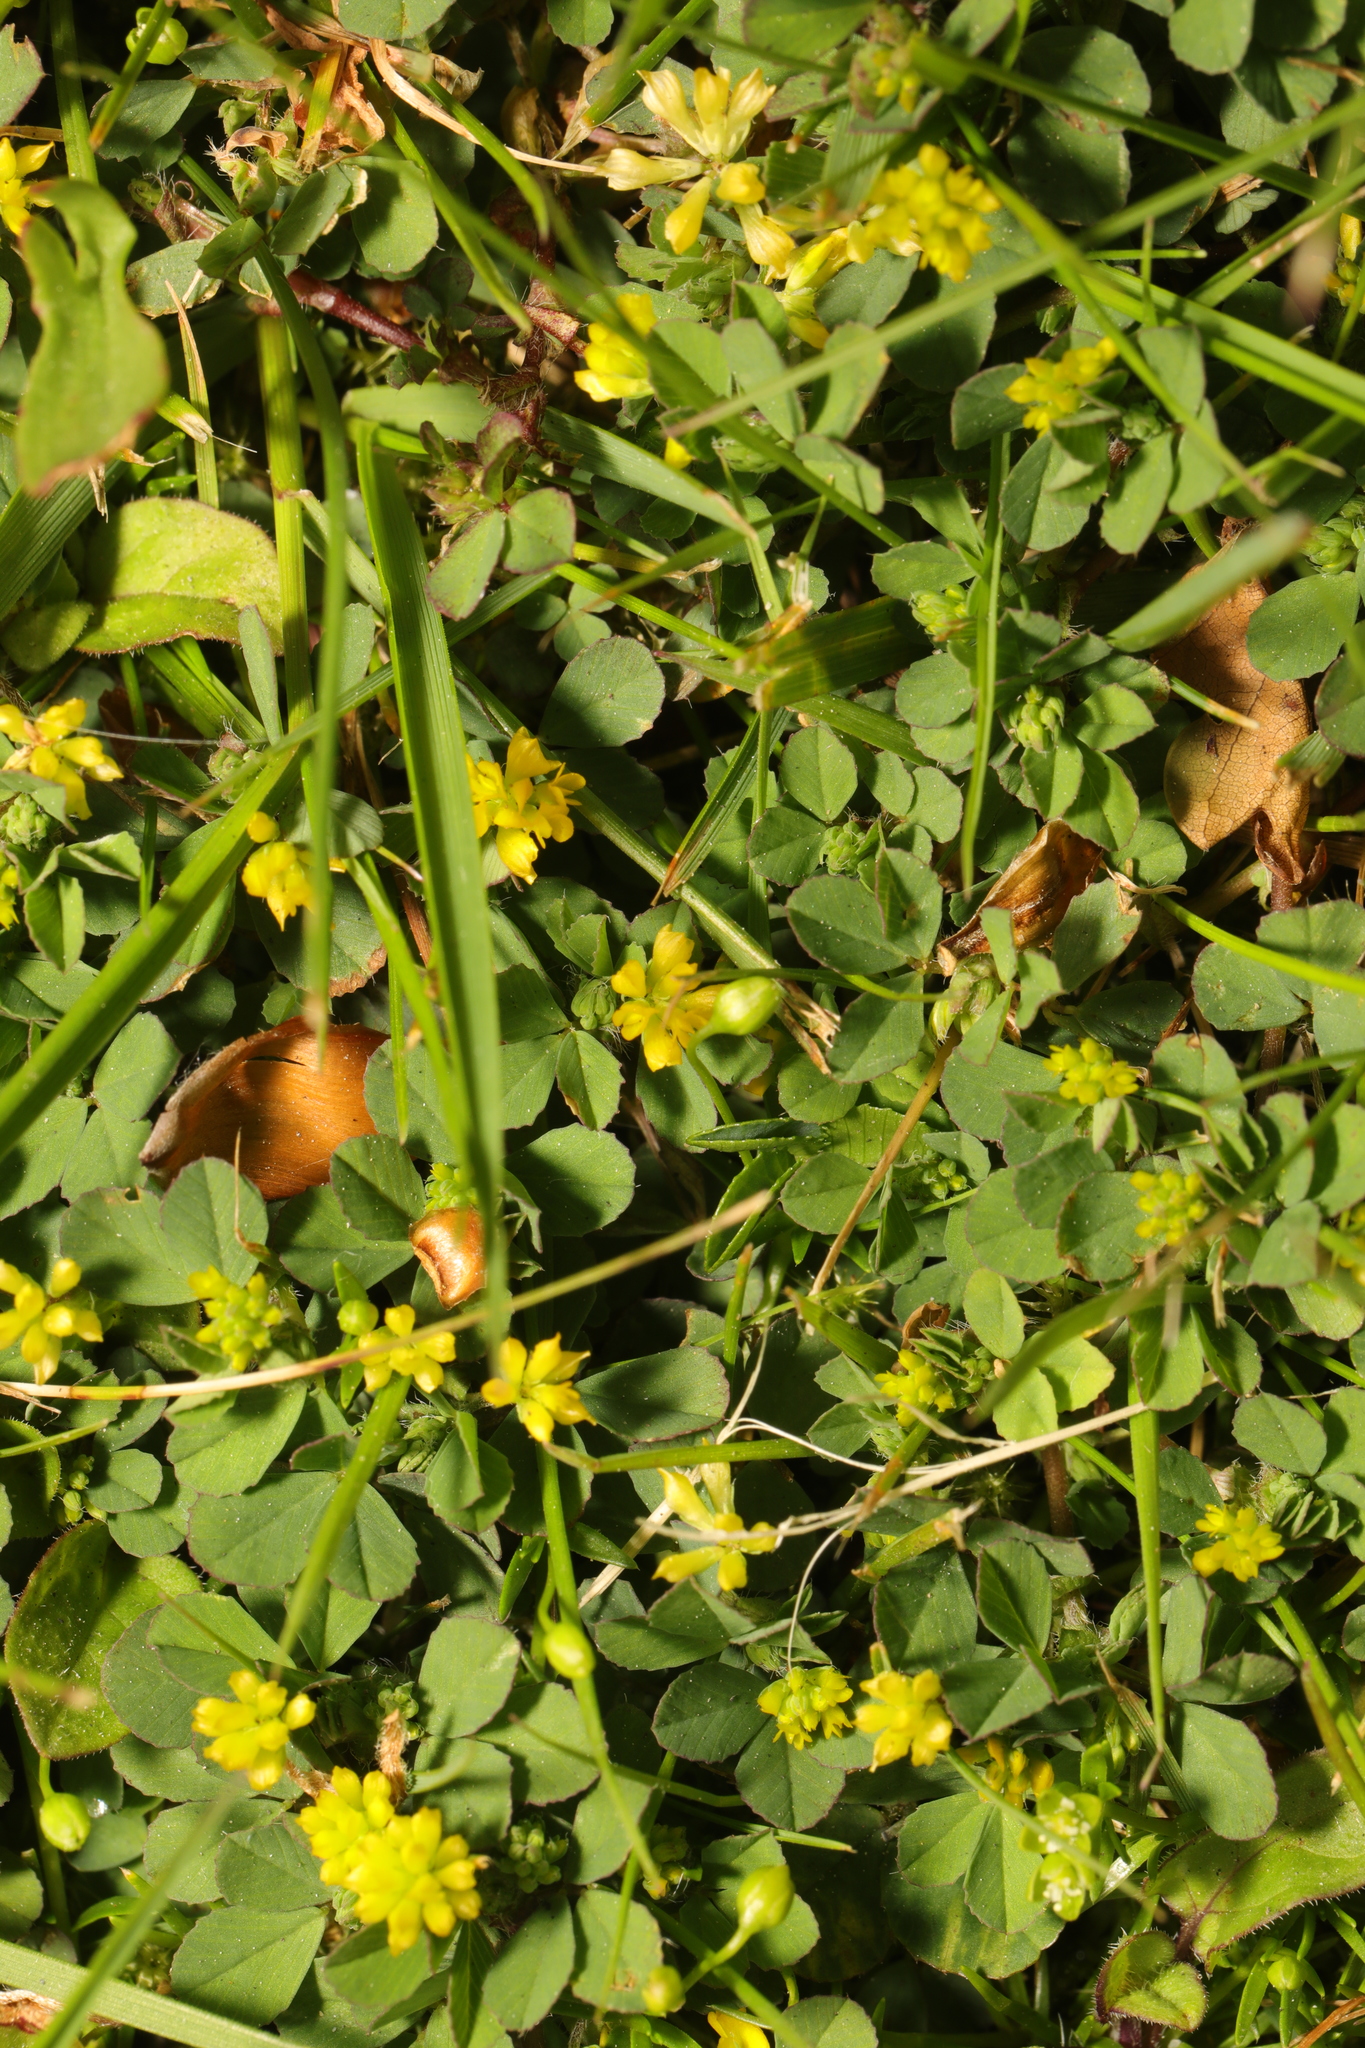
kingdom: Plantae
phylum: Tracheophyta
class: Magnoliopsida
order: Fabales
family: Fabaceae
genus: Trifolium
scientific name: Trifolium dubium
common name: Suckling clover
